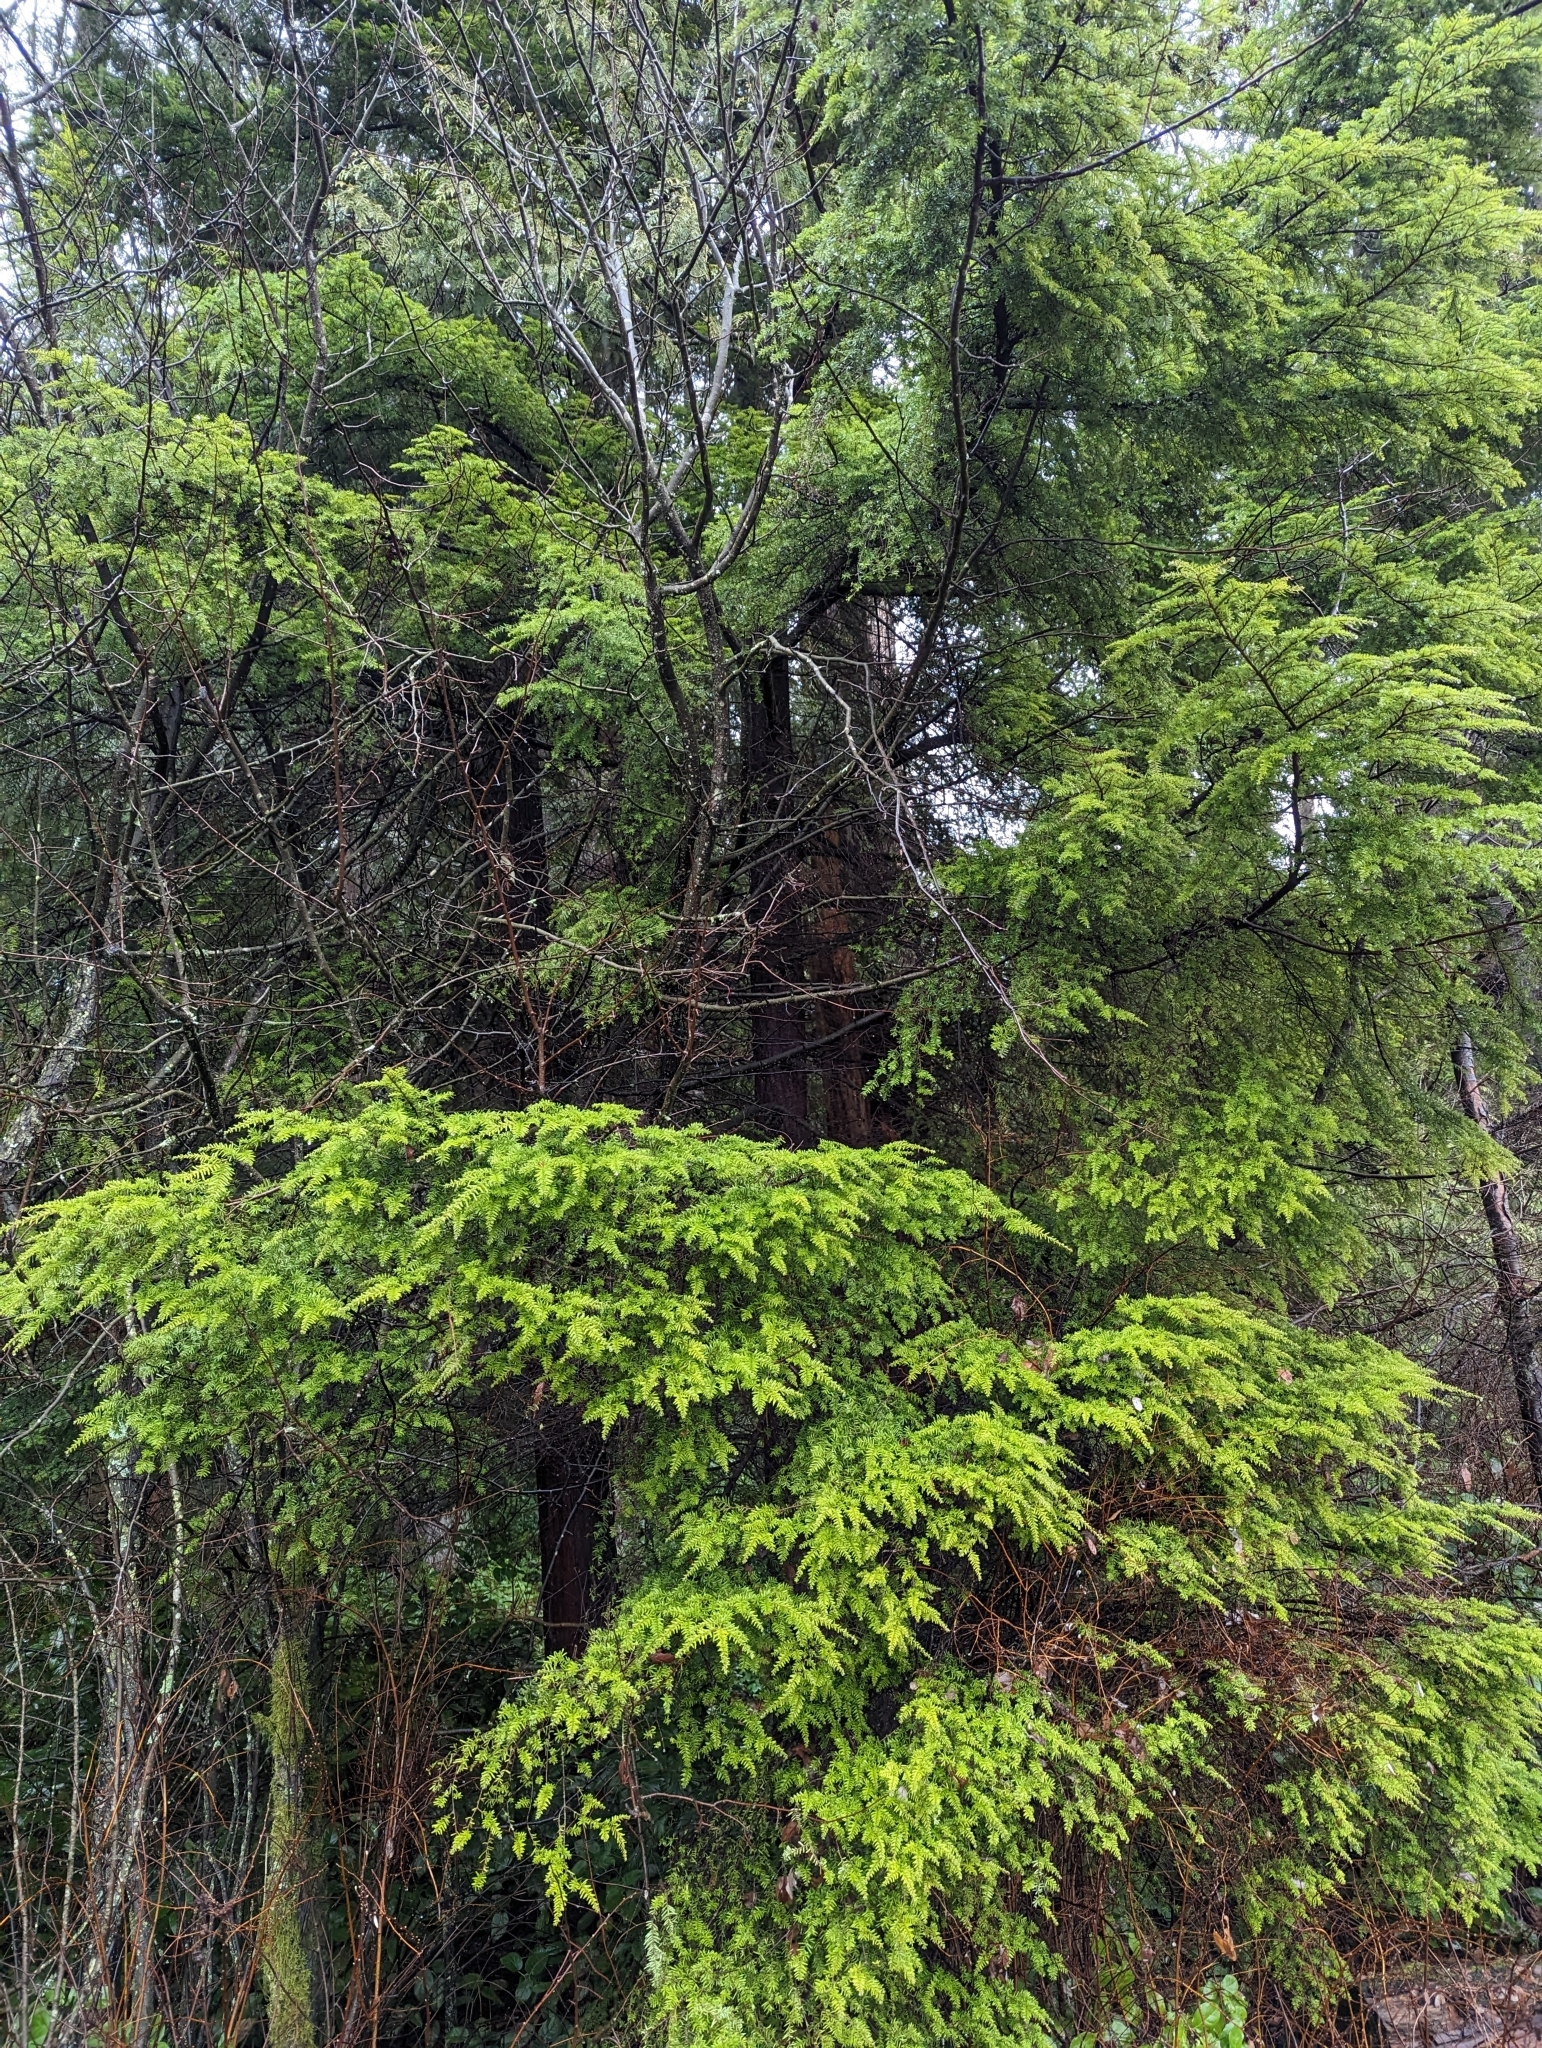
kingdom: Plantae
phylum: Tracheophyta
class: Pinopsida
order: Pinales
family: Pinaceae
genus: Tsuga
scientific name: Tsuga heterophylla
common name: Western hemlock
